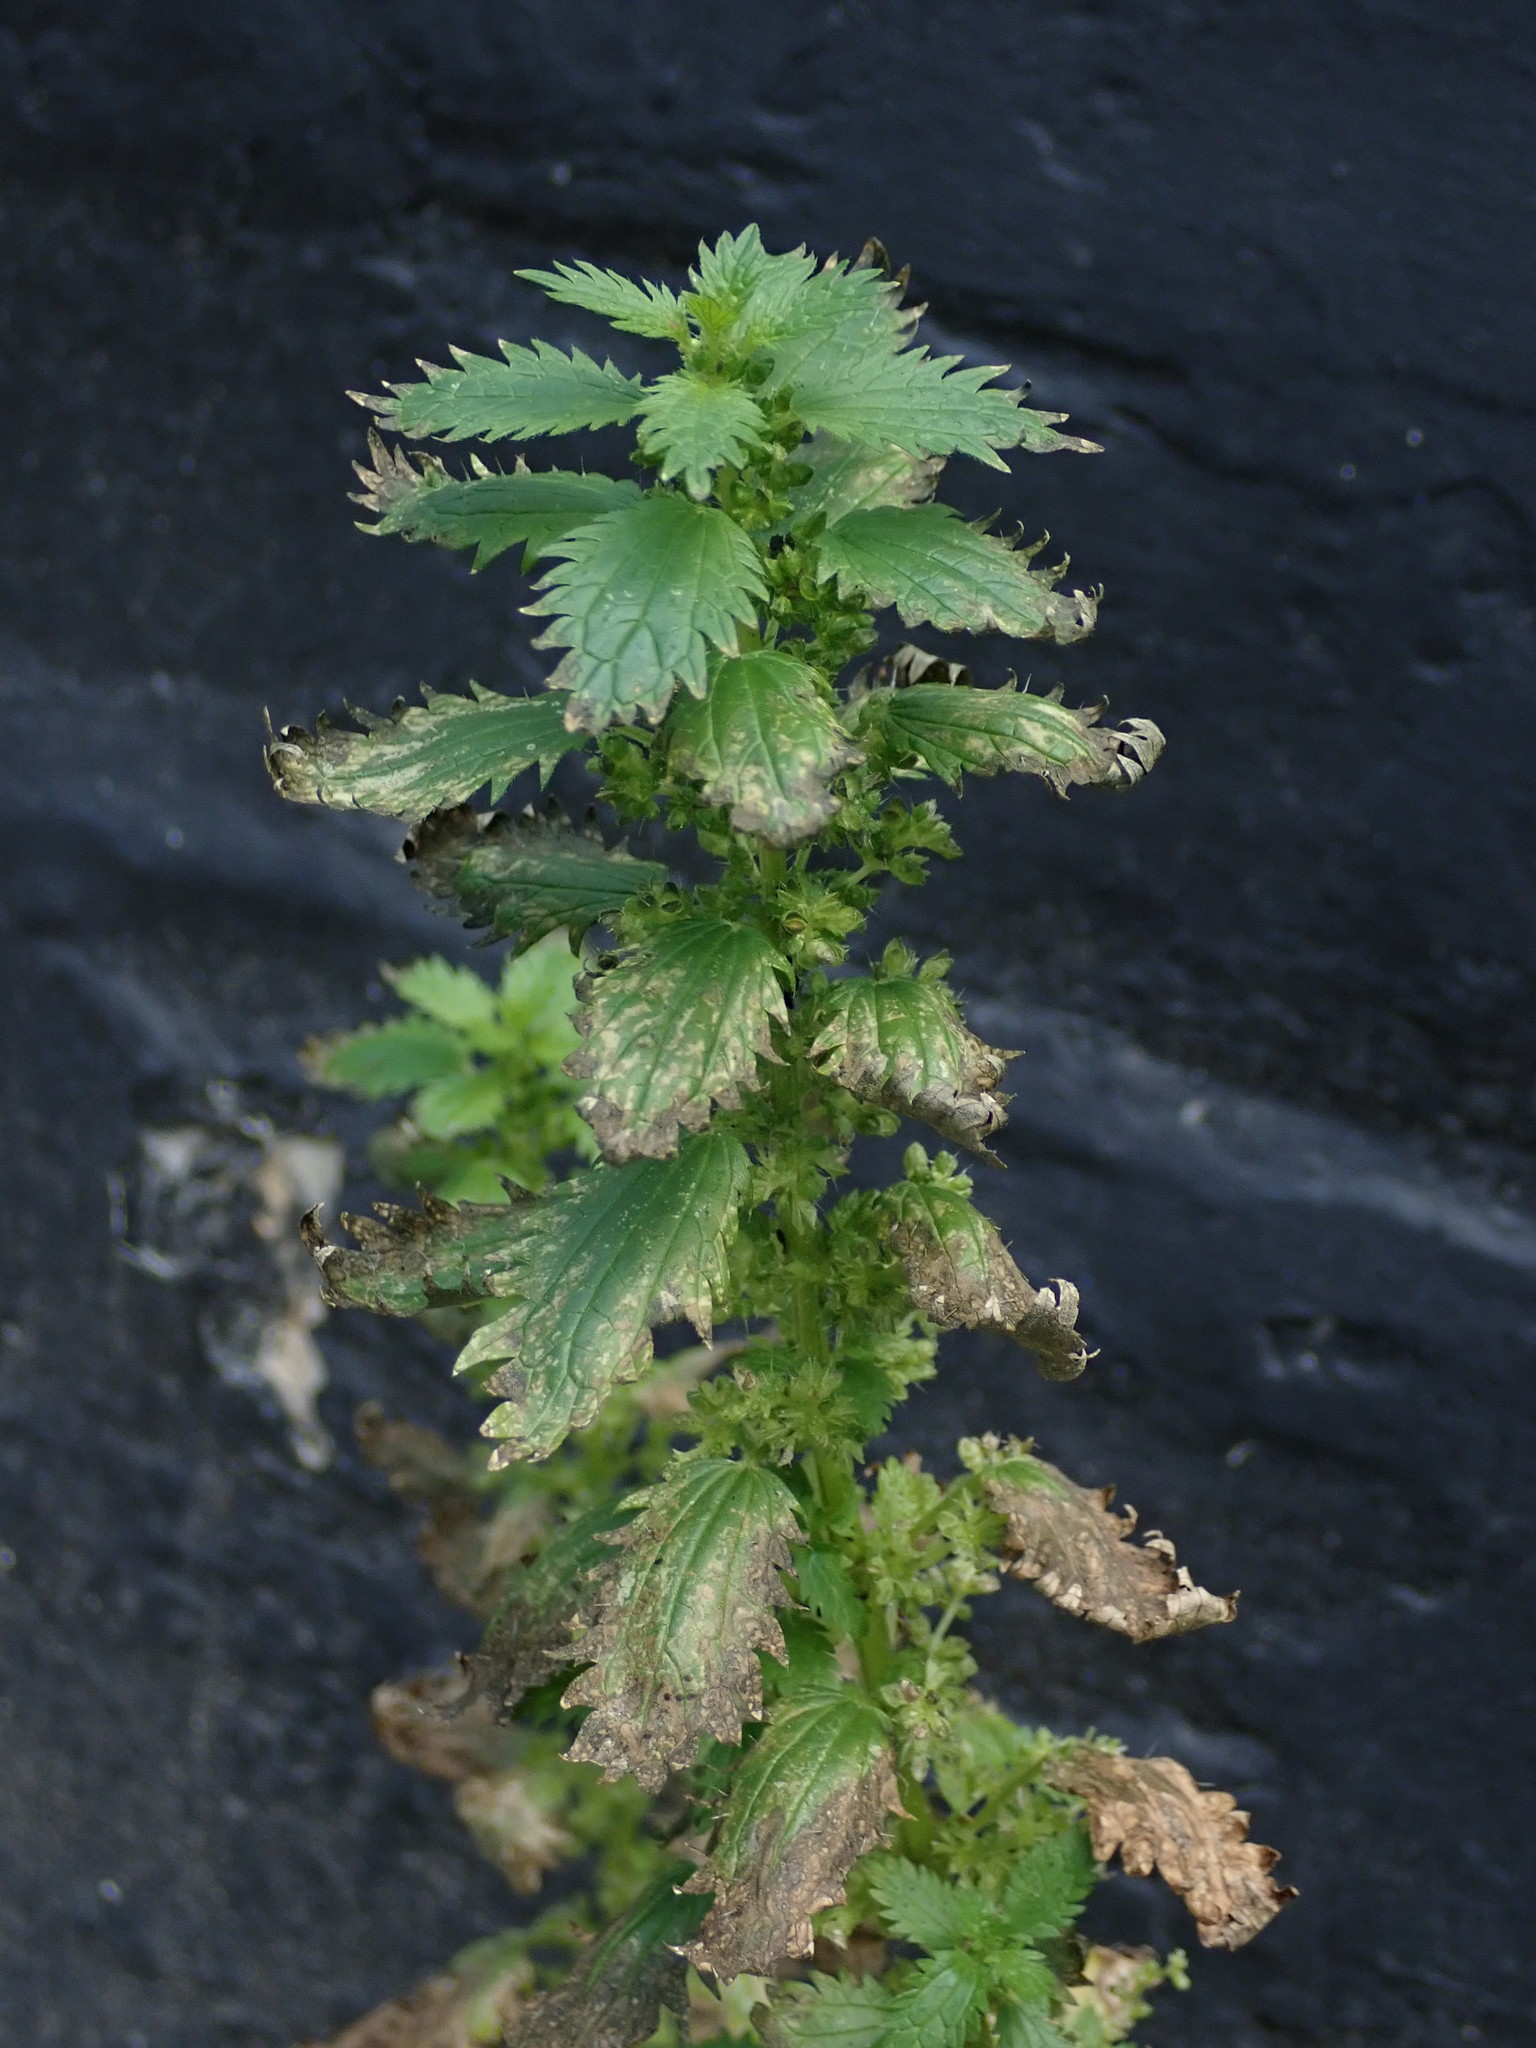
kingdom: Plantae
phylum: Tracheophyta
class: Magnoliopsida
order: Rosales
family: Urticaceae
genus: Urtica
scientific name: Urtica urens
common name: Dwarf nettle
